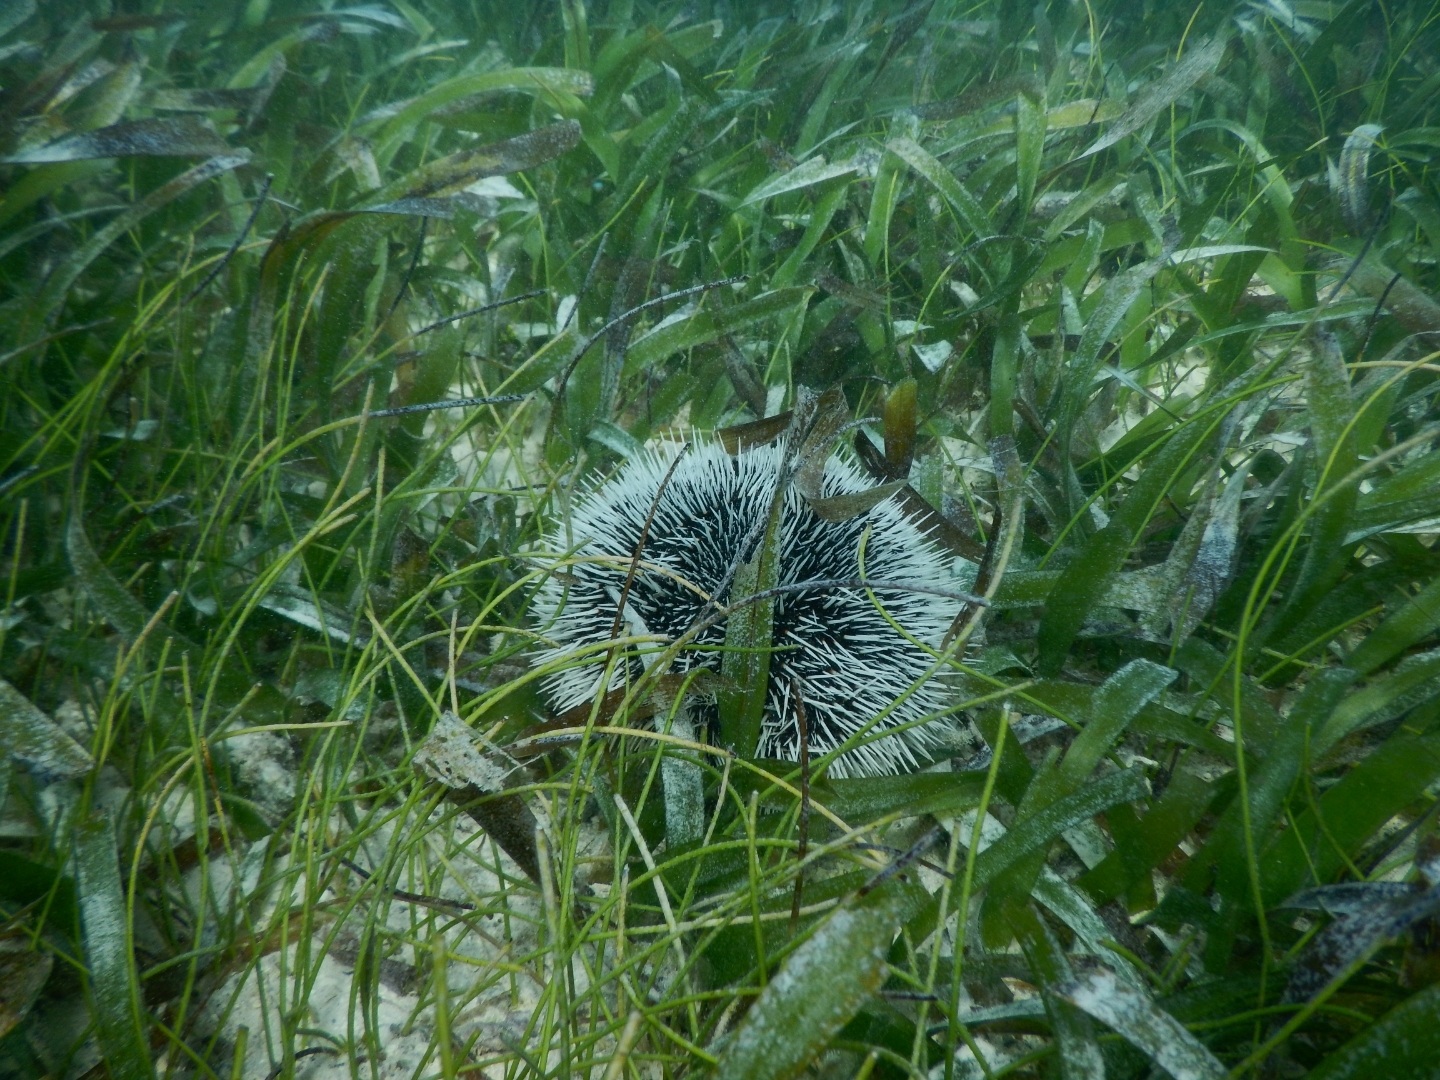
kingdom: Animalia
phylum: Echinodermata
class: Echinoidea
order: Camarodonta
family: Toxopneustidae
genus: Tripneustes
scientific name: Tripneustes ventricosus
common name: West indian sea egg
